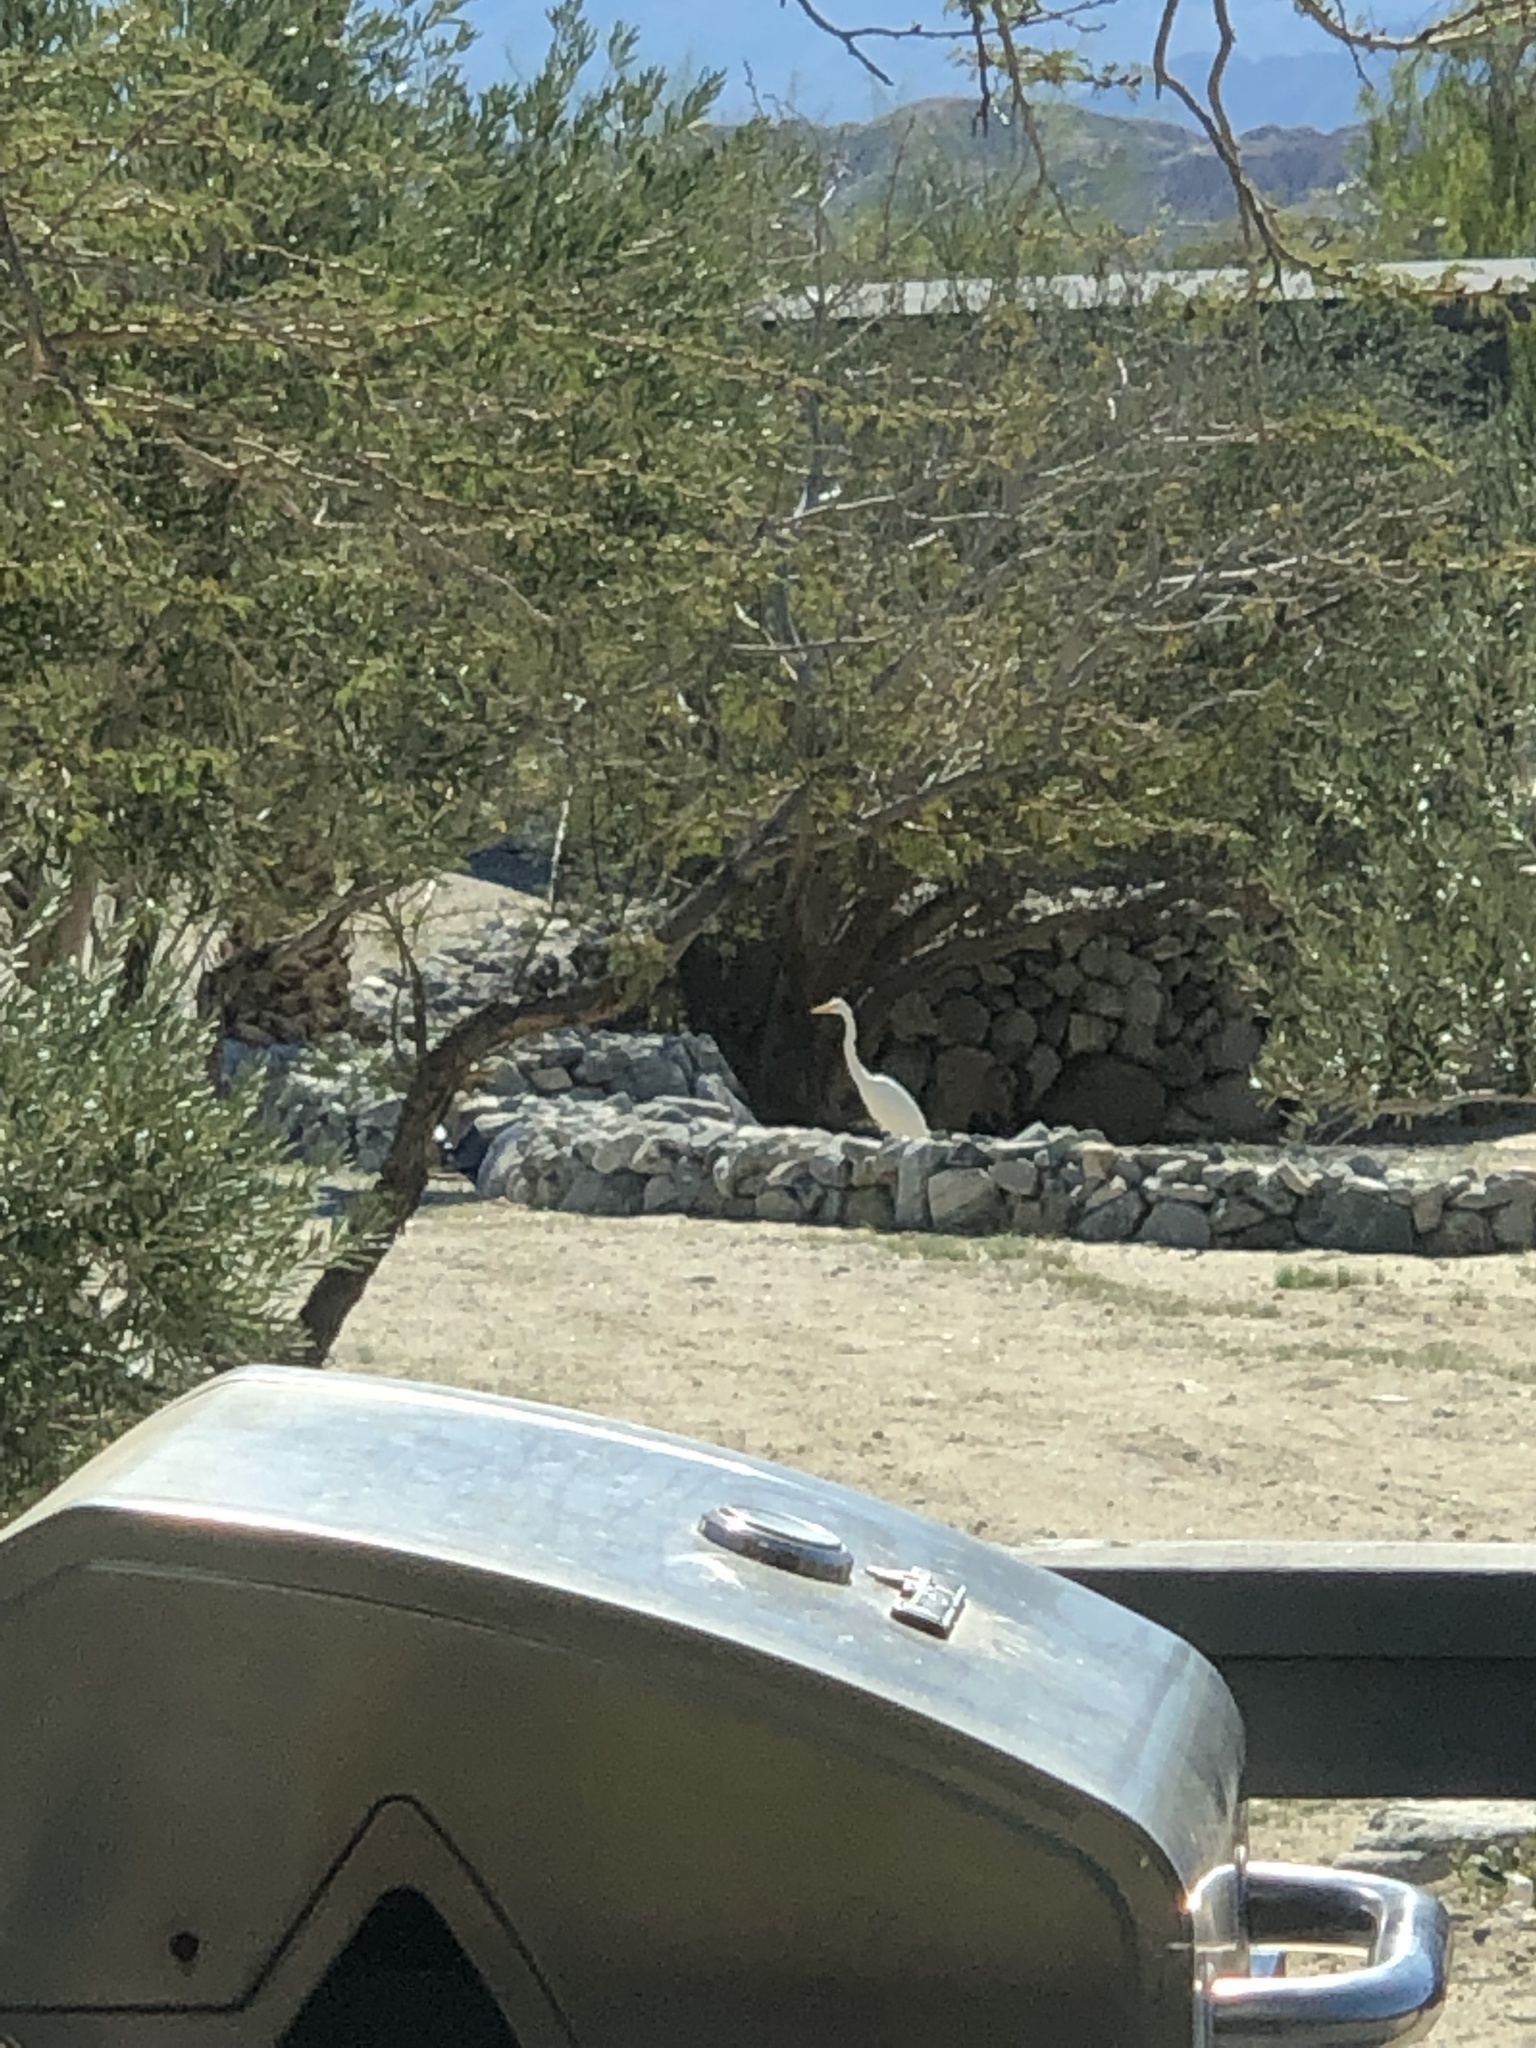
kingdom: Animalia
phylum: Chordata
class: Aves
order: Pelecaniformes
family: Ardeidae
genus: Ardea
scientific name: Ardea alba
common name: Great egret
